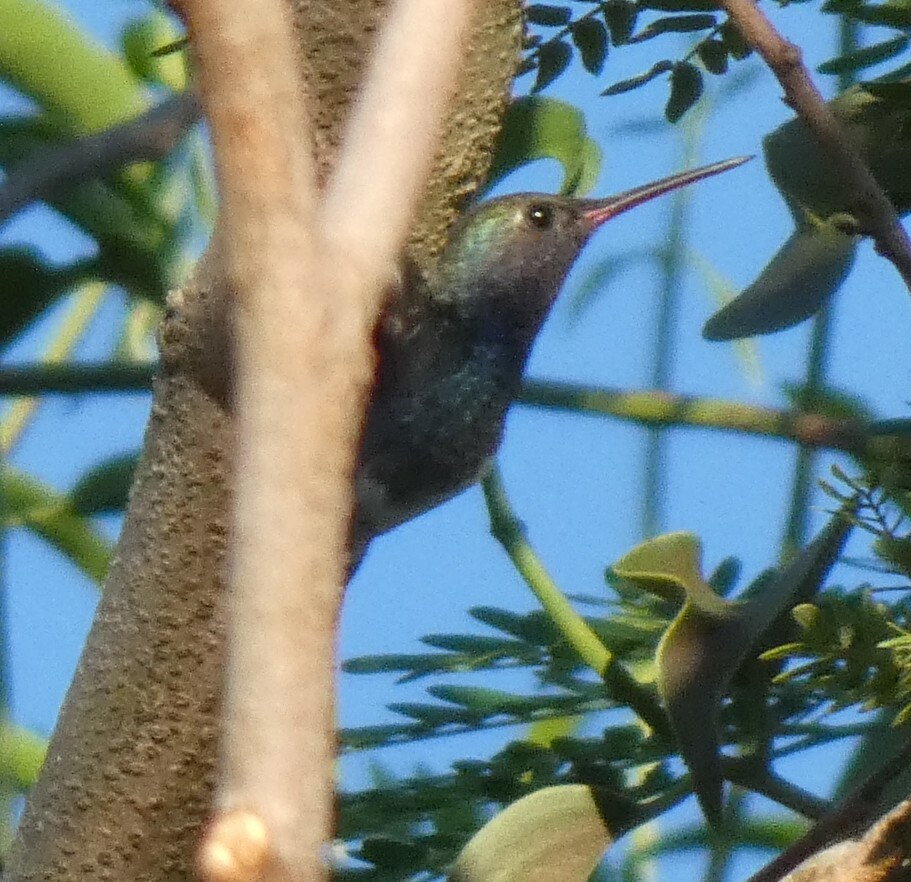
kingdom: Animalia
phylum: Chordata
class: Aves
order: Apodiformes
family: Trochilidae
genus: Chionomesa
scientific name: Chionomesa lactea
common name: Sapphire-spangled emerald
